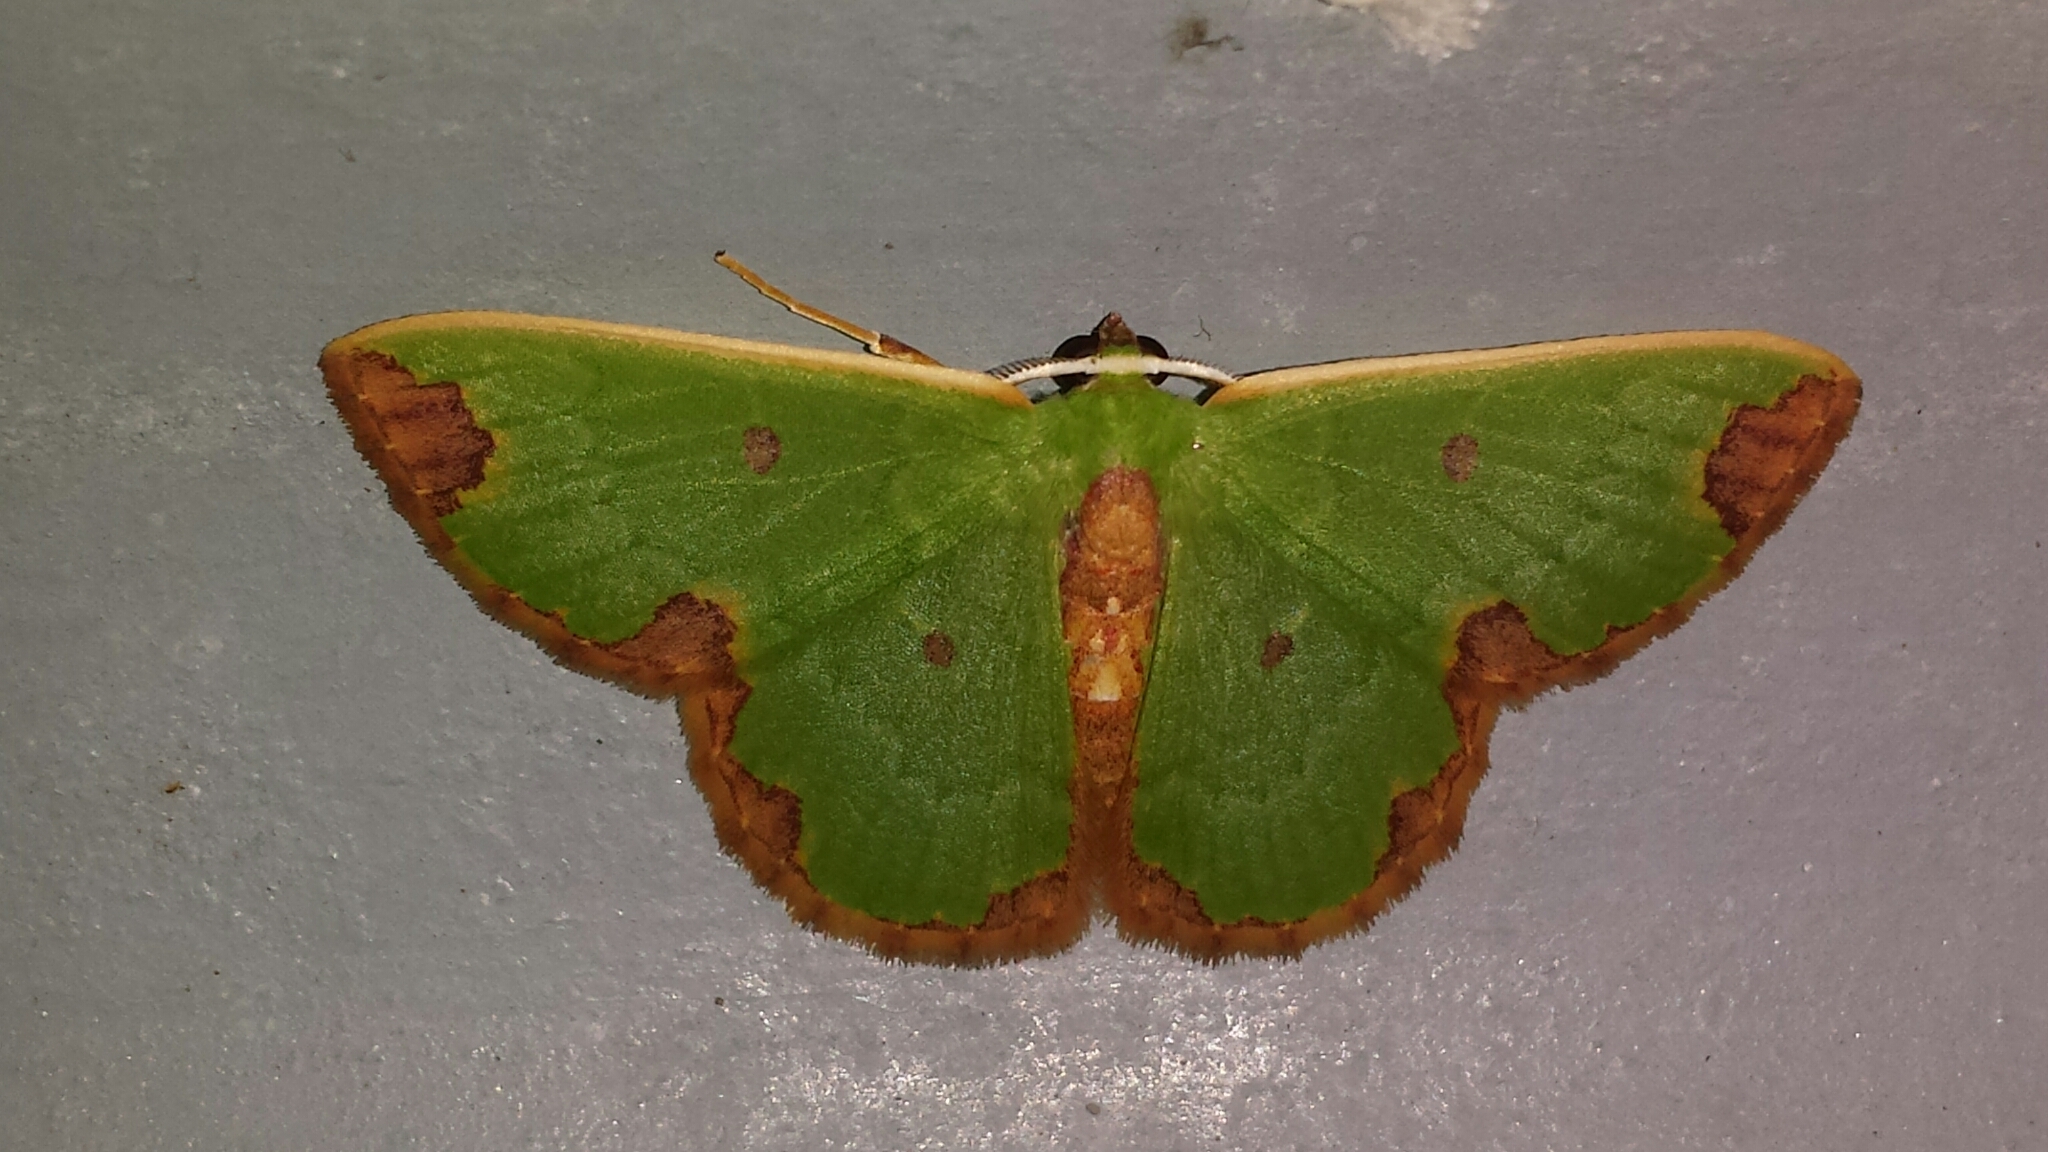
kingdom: Animalia
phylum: Arthropoda
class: Insecta
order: Lepidoptera
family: Geometridae
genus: Chavarriella
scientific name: Chavarriella semiornata
